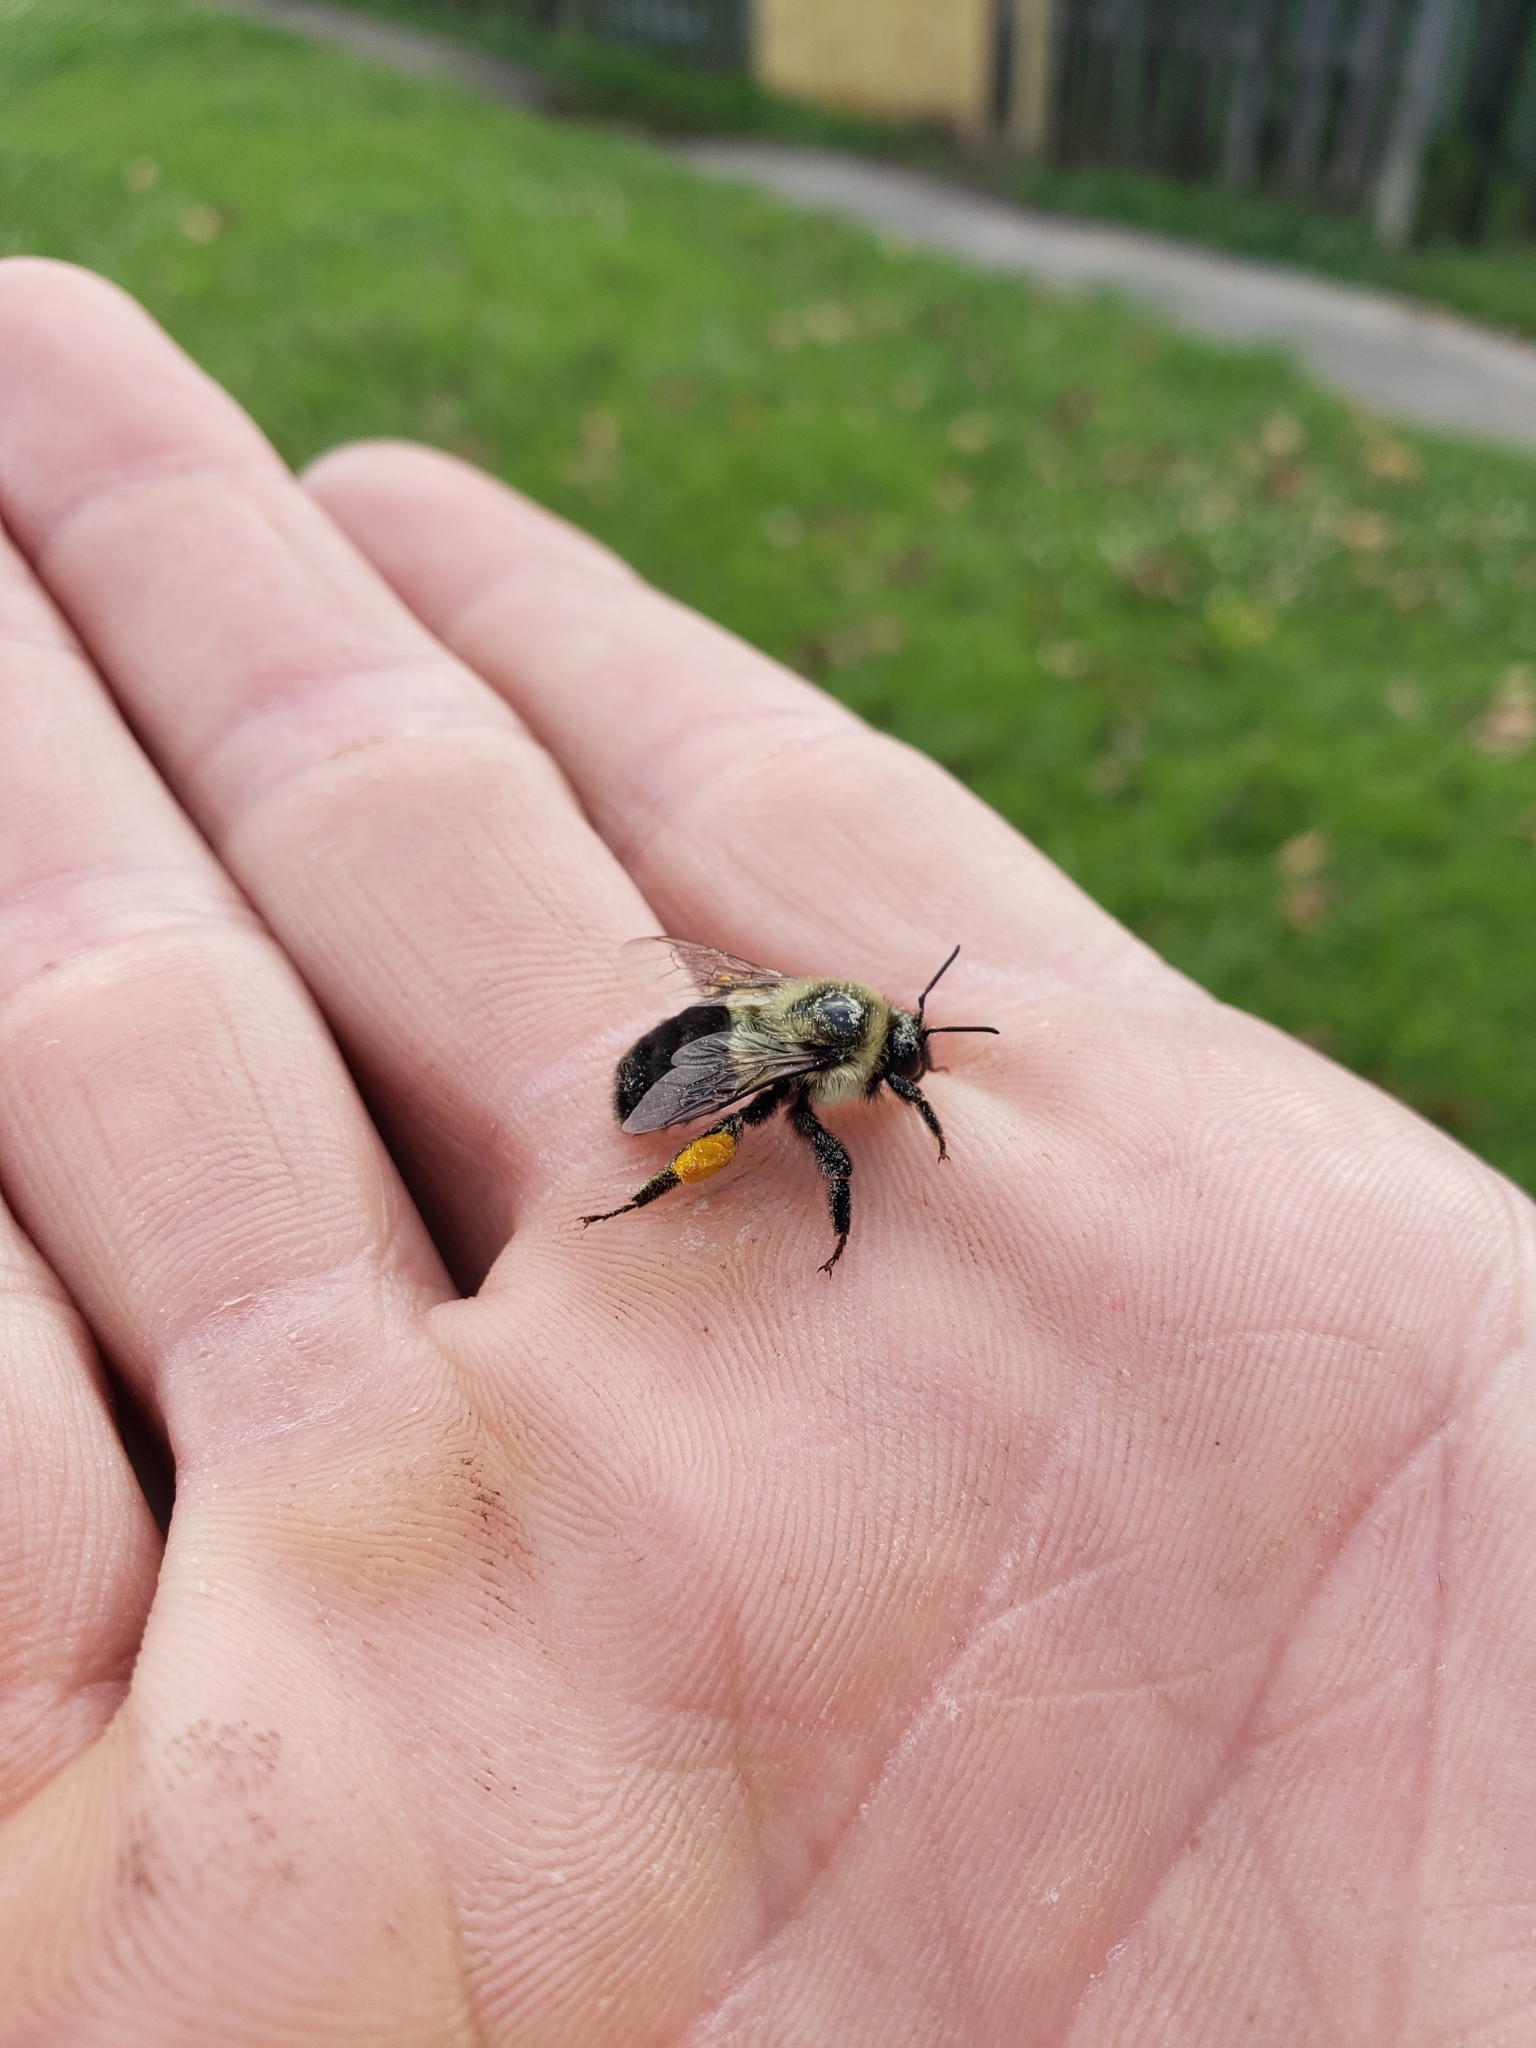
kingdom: Animalia
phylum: Arthropoda
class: Insecta
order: Hymenoptera
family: Apidae
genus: Bombus
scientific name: Bombus impatiens
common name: Common eastern bumble bee
